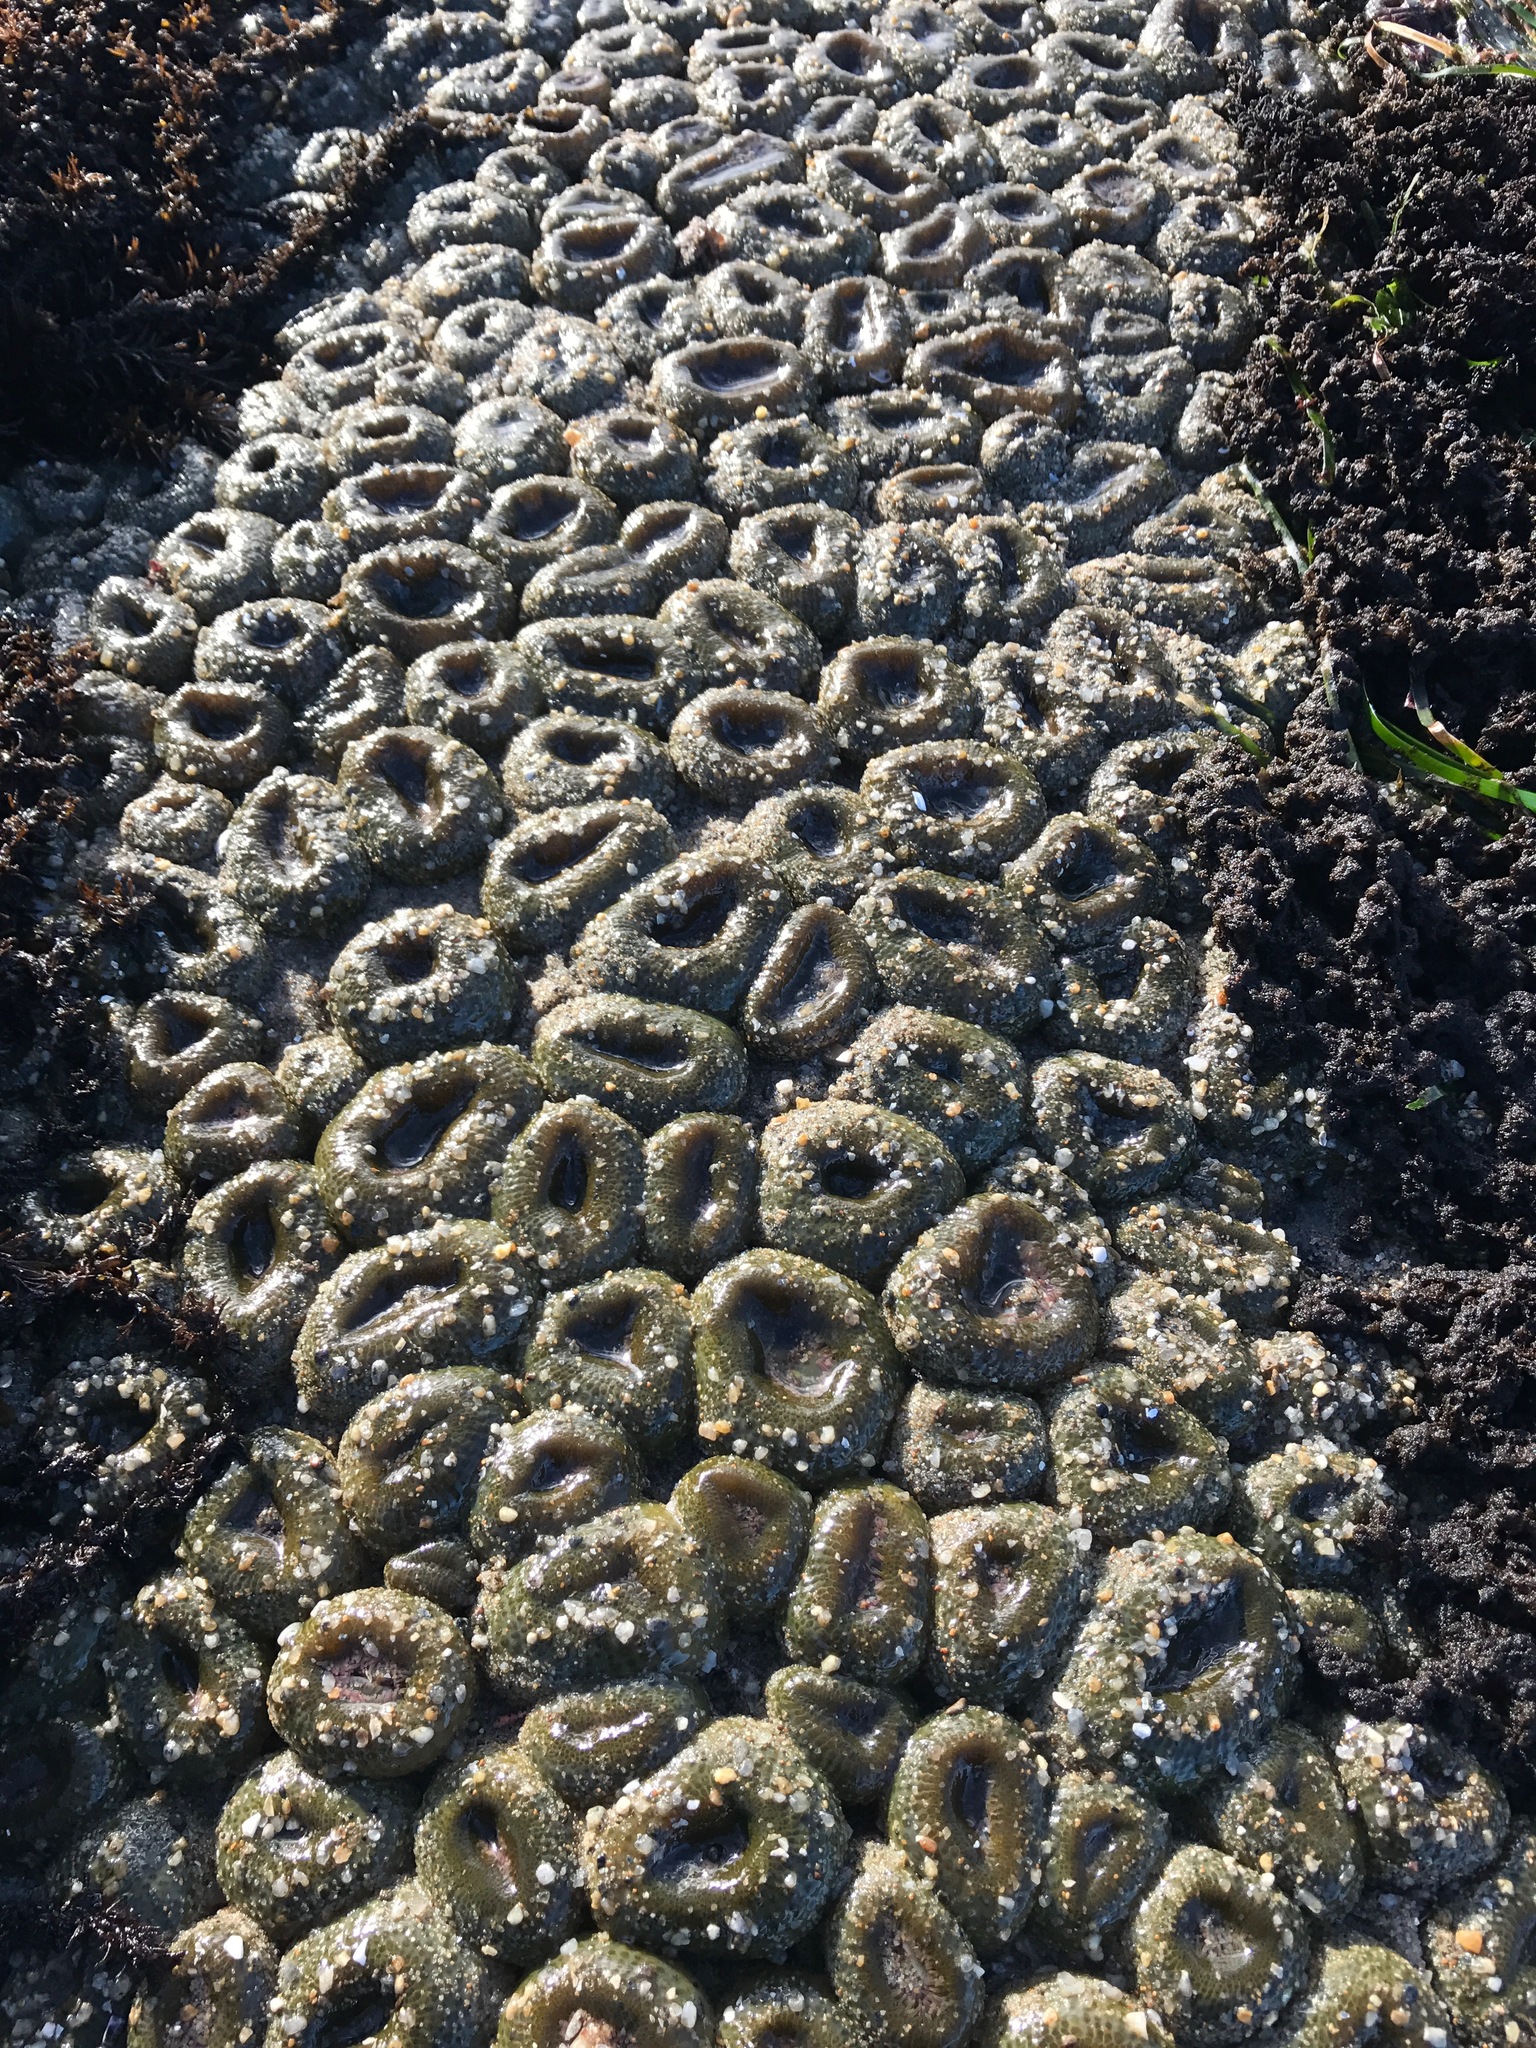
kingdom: Animalia
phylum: Cnidaria
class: Anthozoa
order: Actiniaria
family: Actiniidae
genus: Anthopleura
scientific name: Anthopleura elegantissima
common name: Clonal anemone
